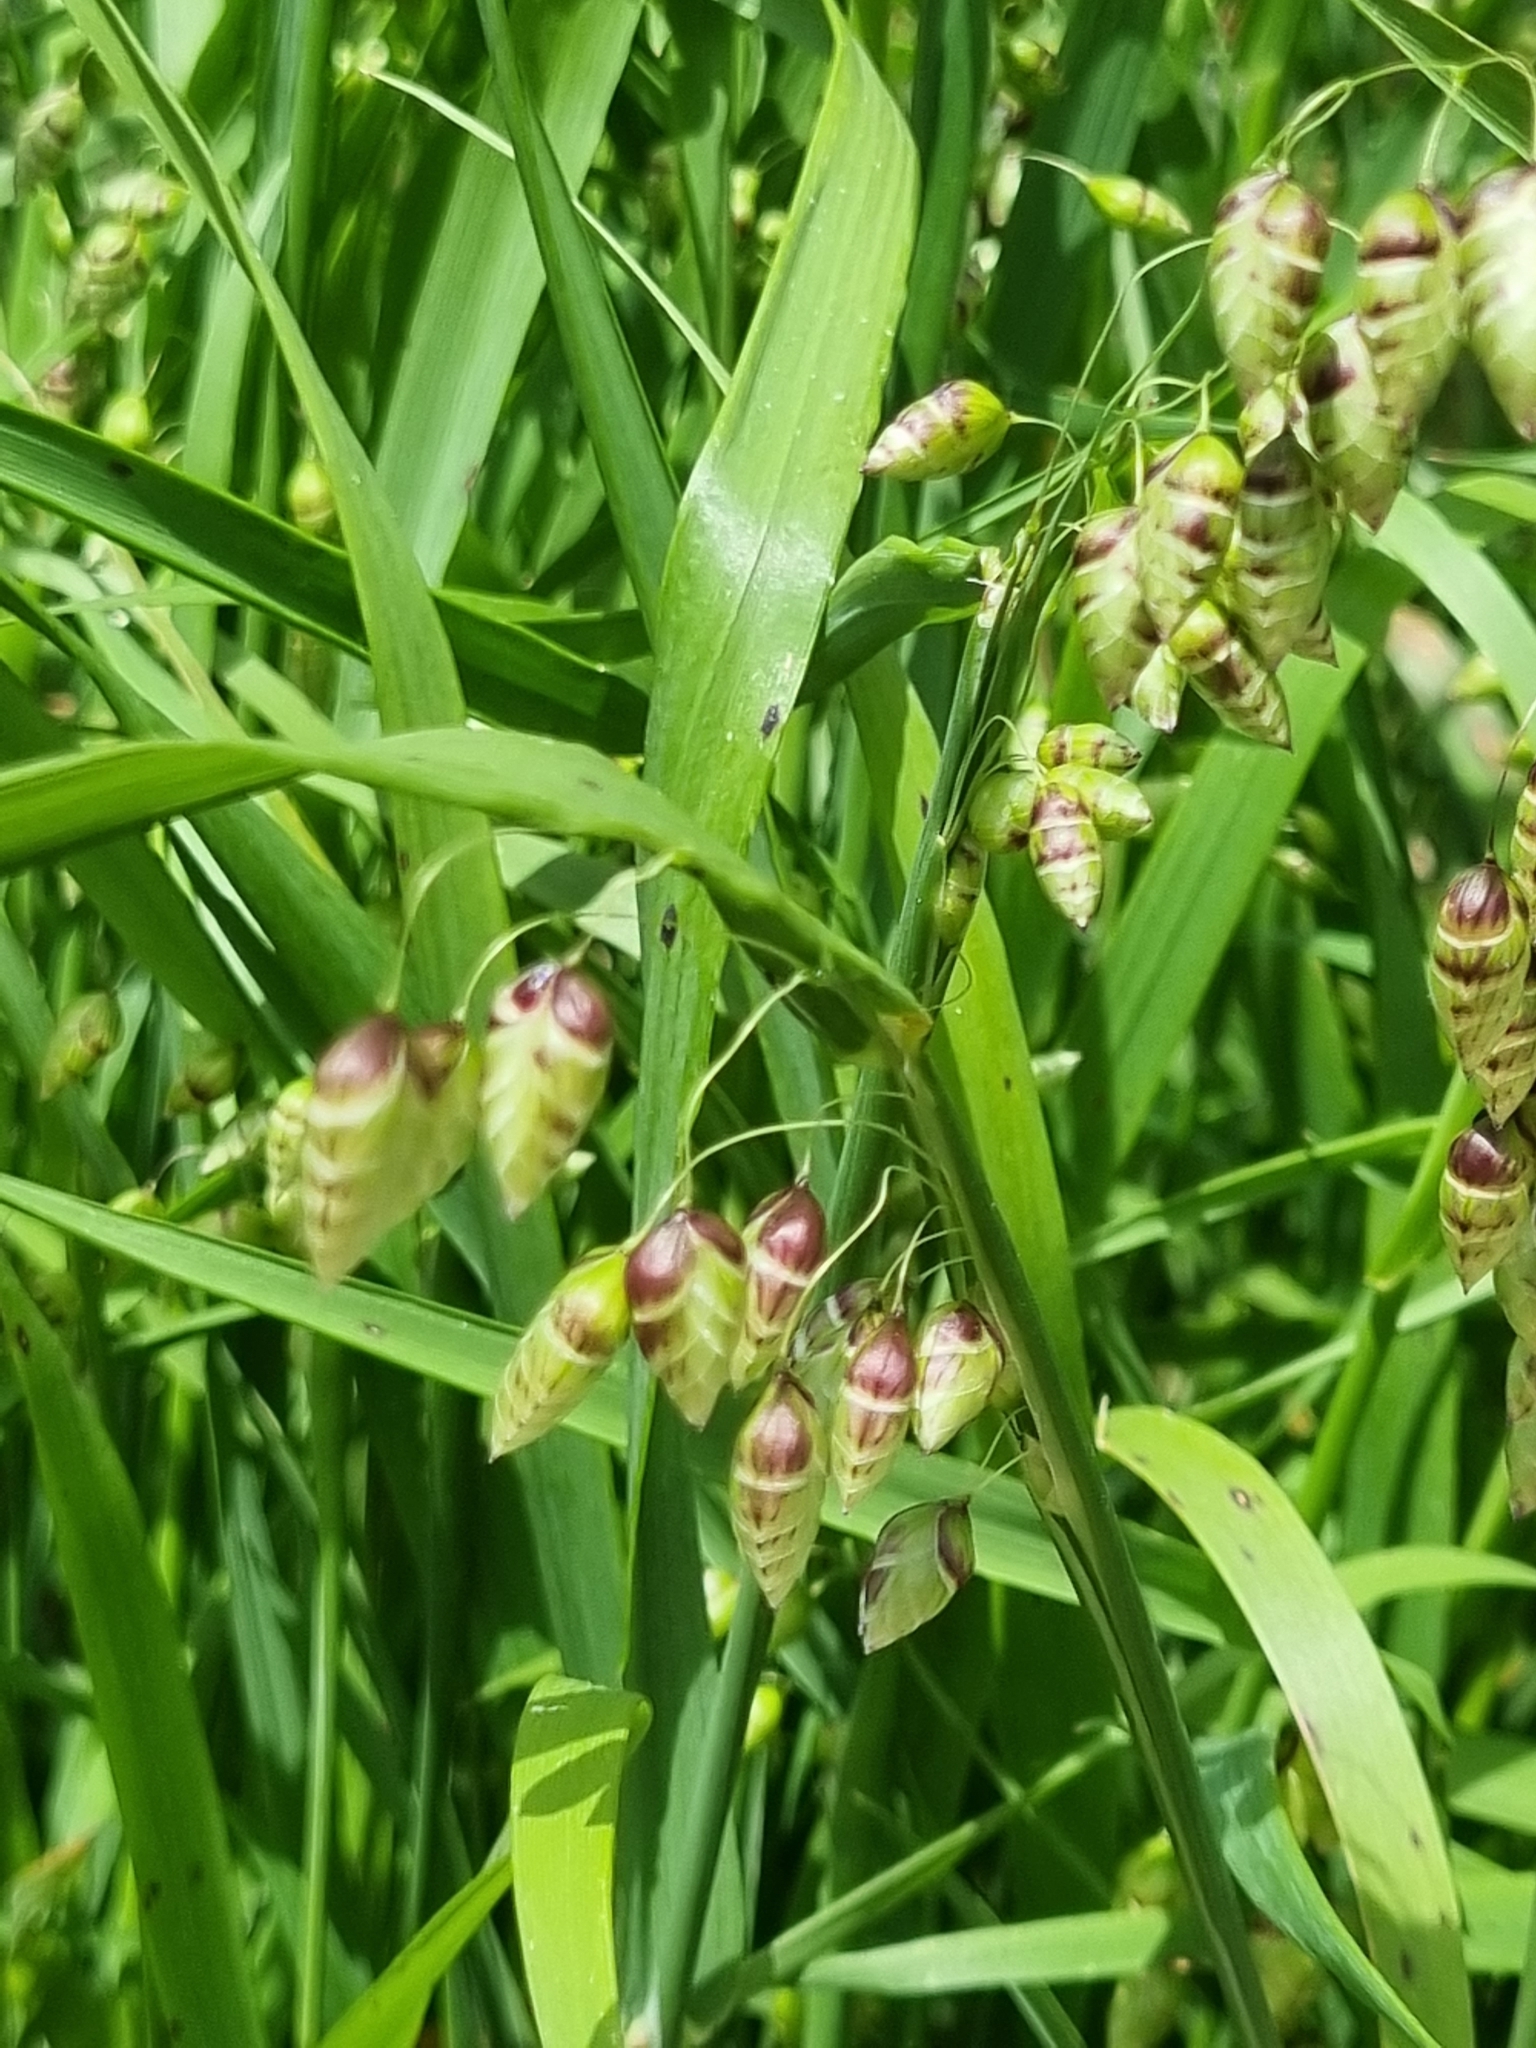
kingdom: Plantae
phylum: Tracheophyta
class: Liliopsida
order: Poales
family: Poaceae
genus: Briza
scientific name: Briza maxima
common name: Big quakinggrass
